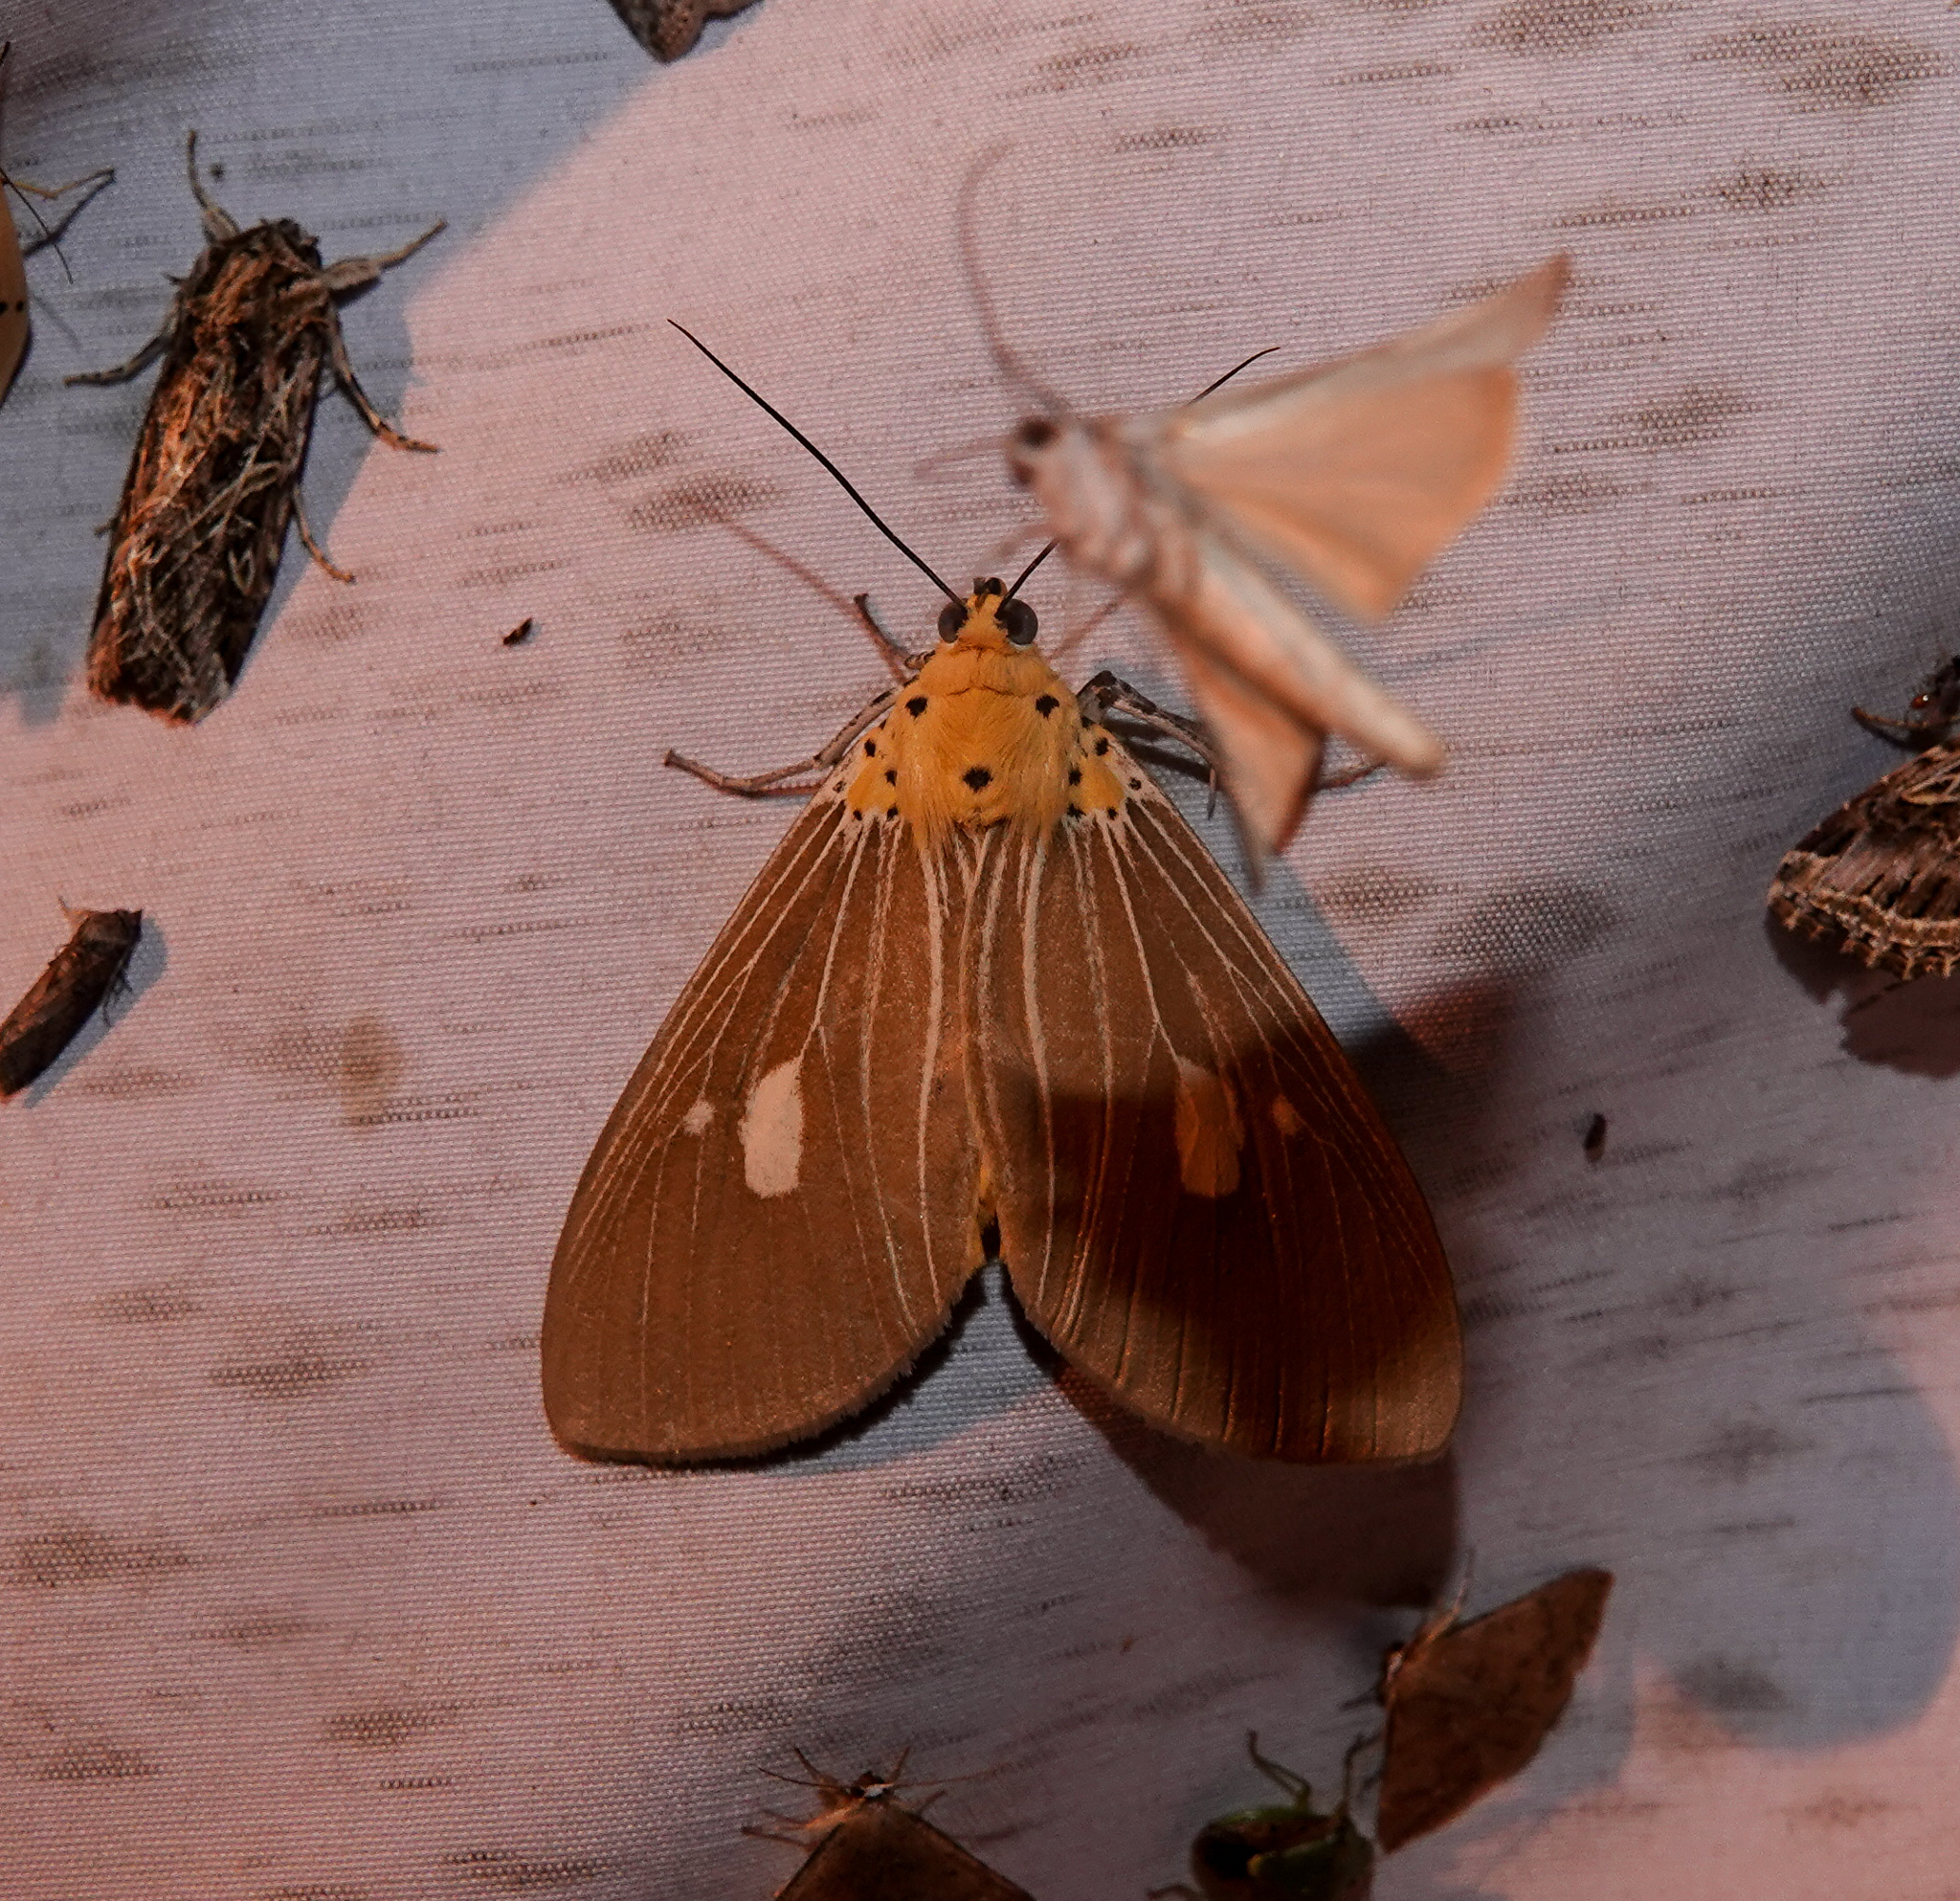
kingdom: Animalia
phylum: Arthropoda
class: Insecta
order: Lepidoptera
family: Erebidae
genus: Asota
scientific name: Asota plaginota
